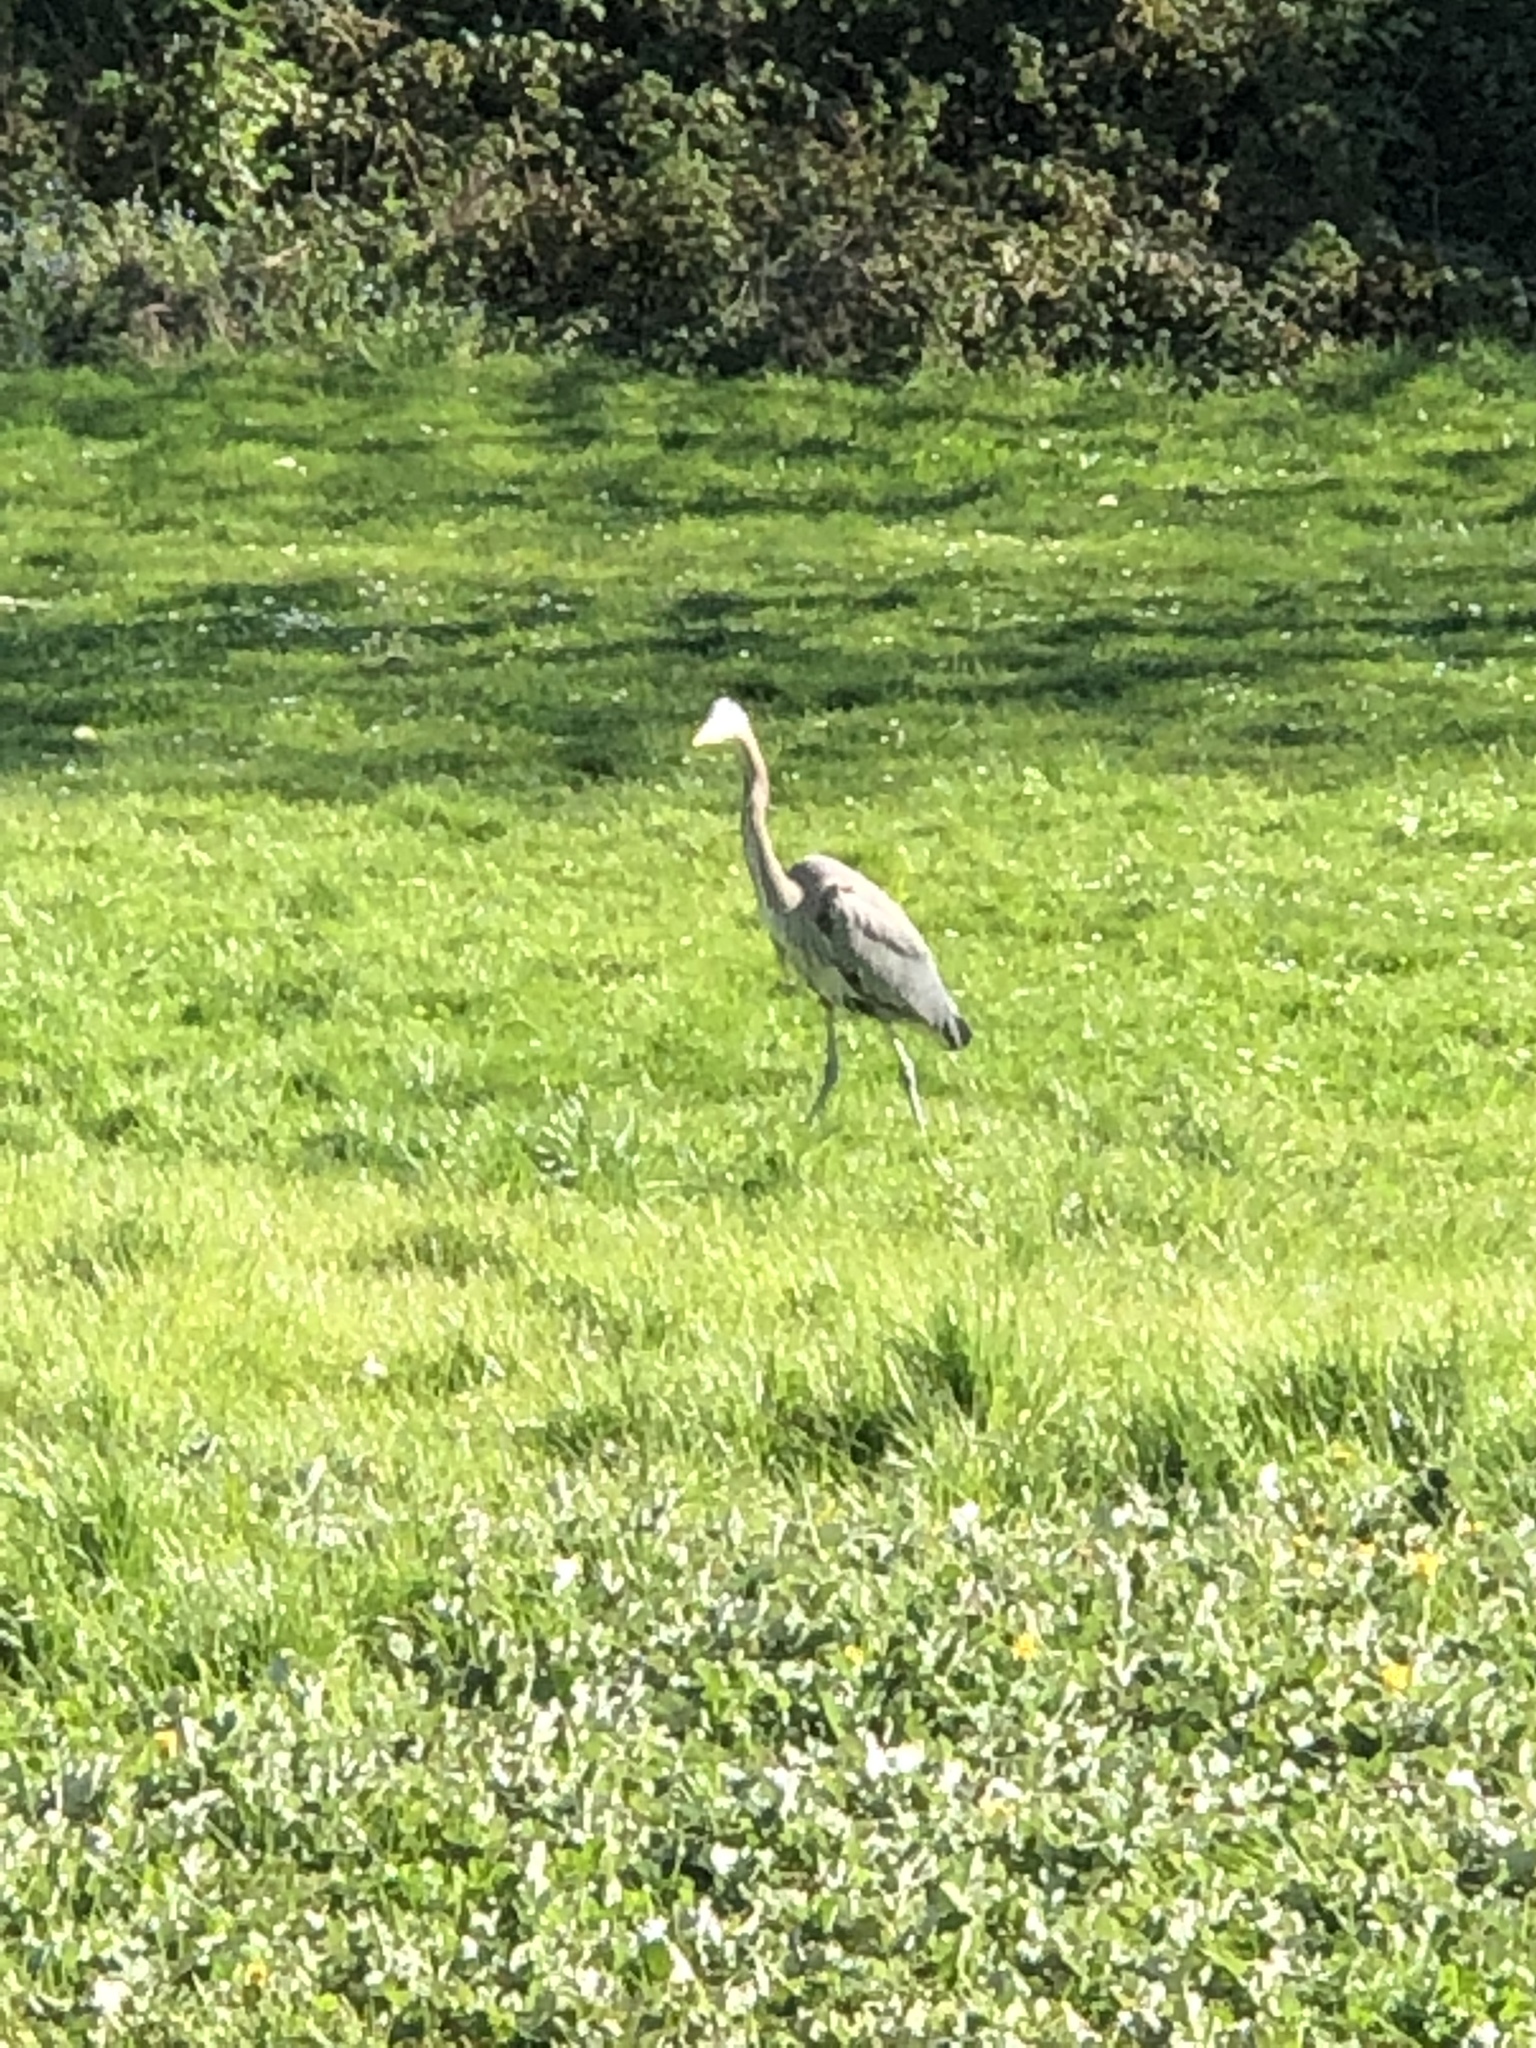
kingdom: Animalia
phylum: Chordata
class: Aves
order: Pelecaniformes
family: Ardeidae
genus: Ardea
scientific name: Ardea herodias
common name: Great blue heron
